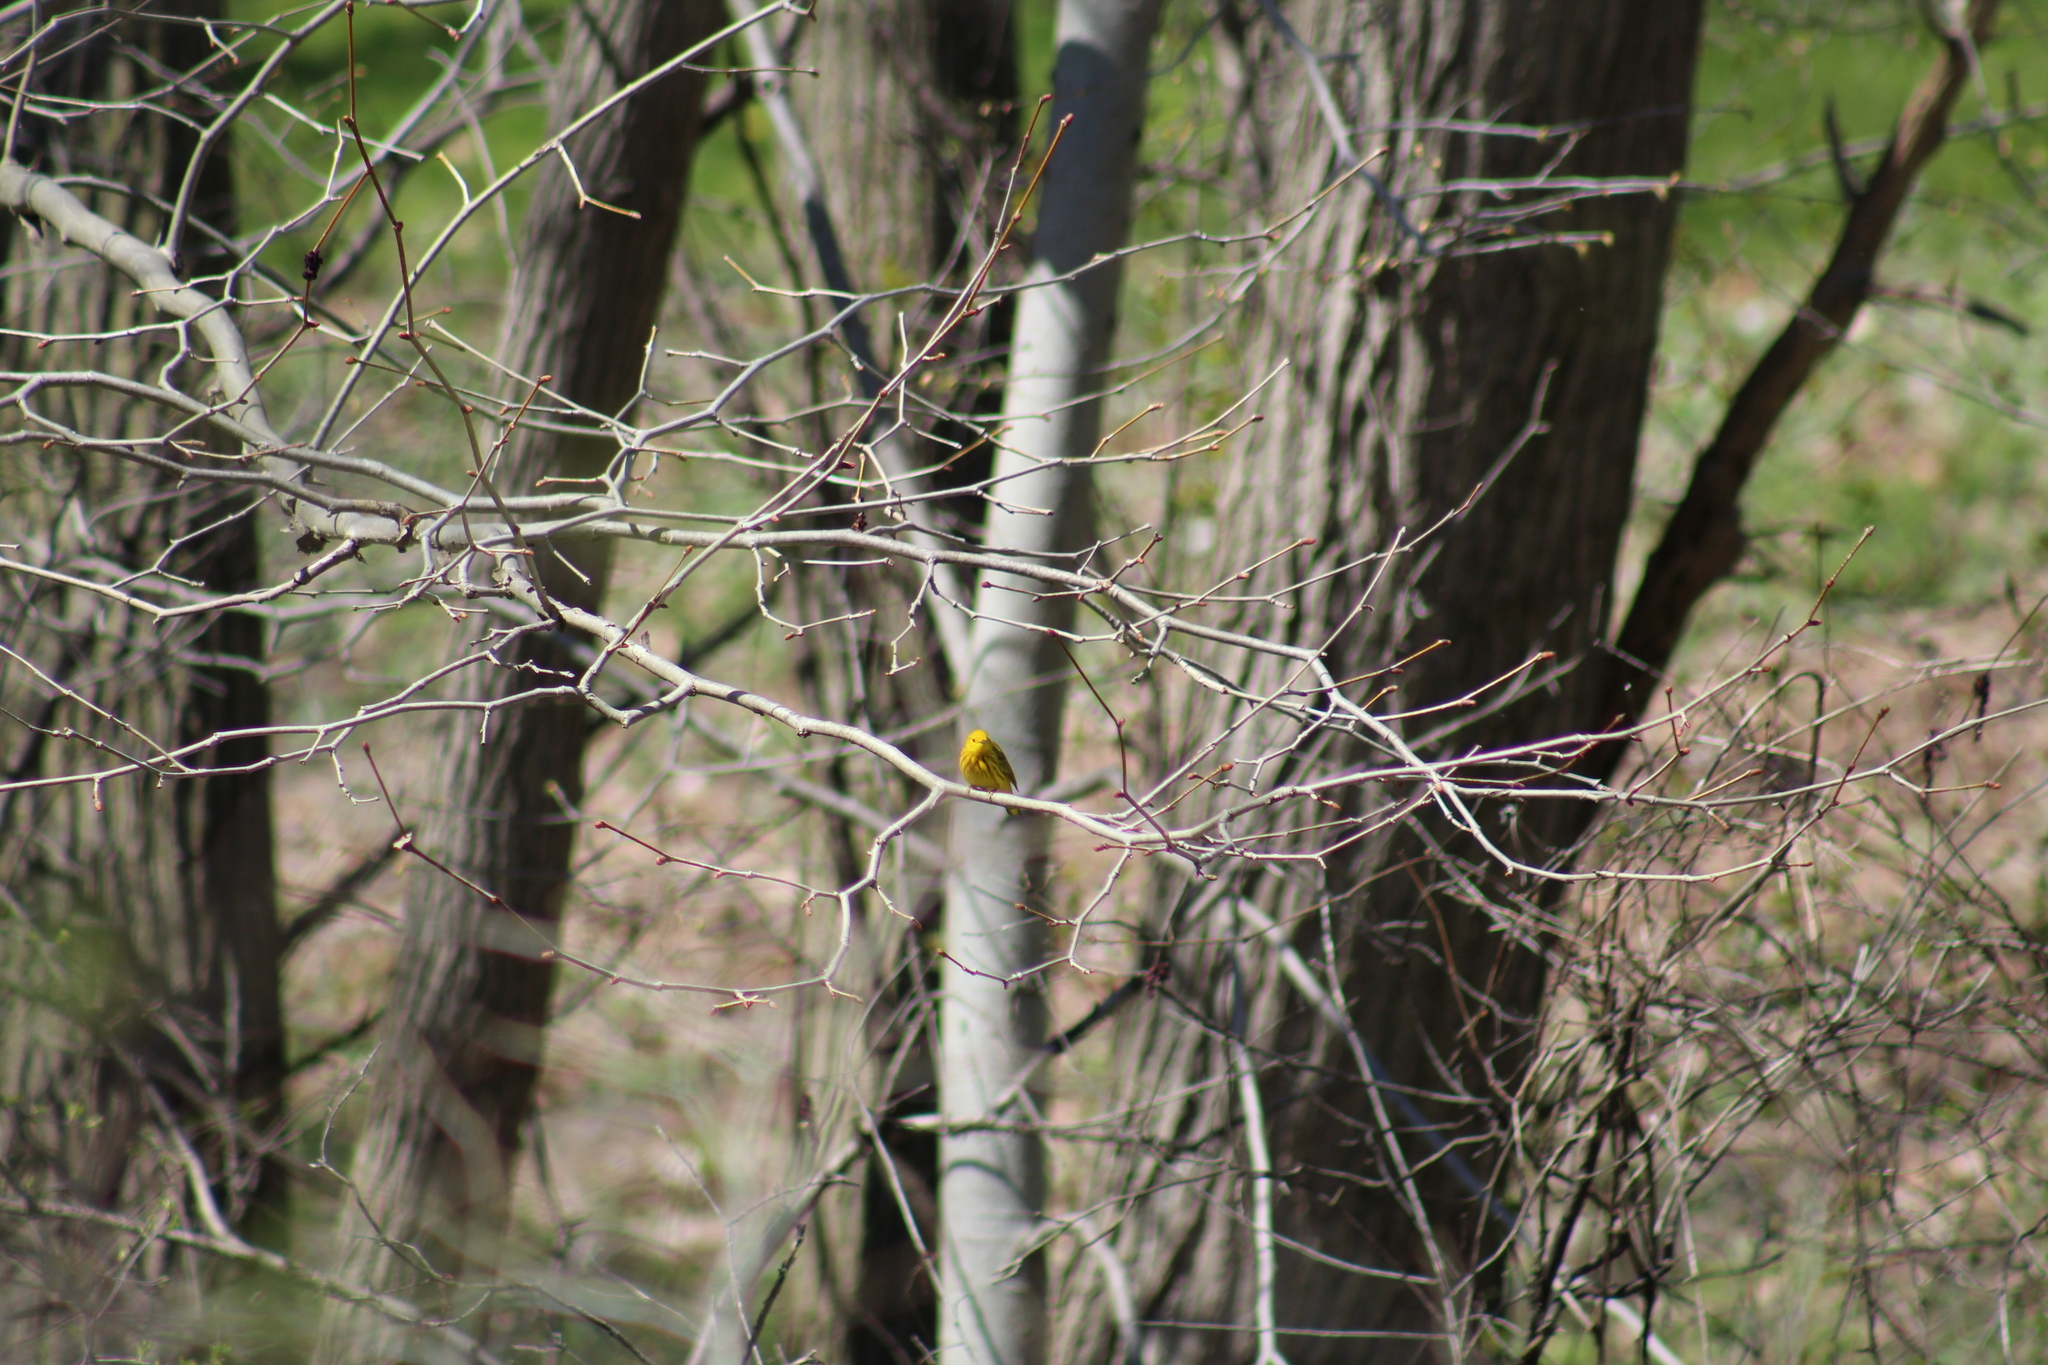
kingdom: Animalia
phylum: Chordata
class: Aves
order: Passeriformes
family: Parulidae
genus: Setophaga
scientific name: Setophaga petechia
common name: Yellow warbler
